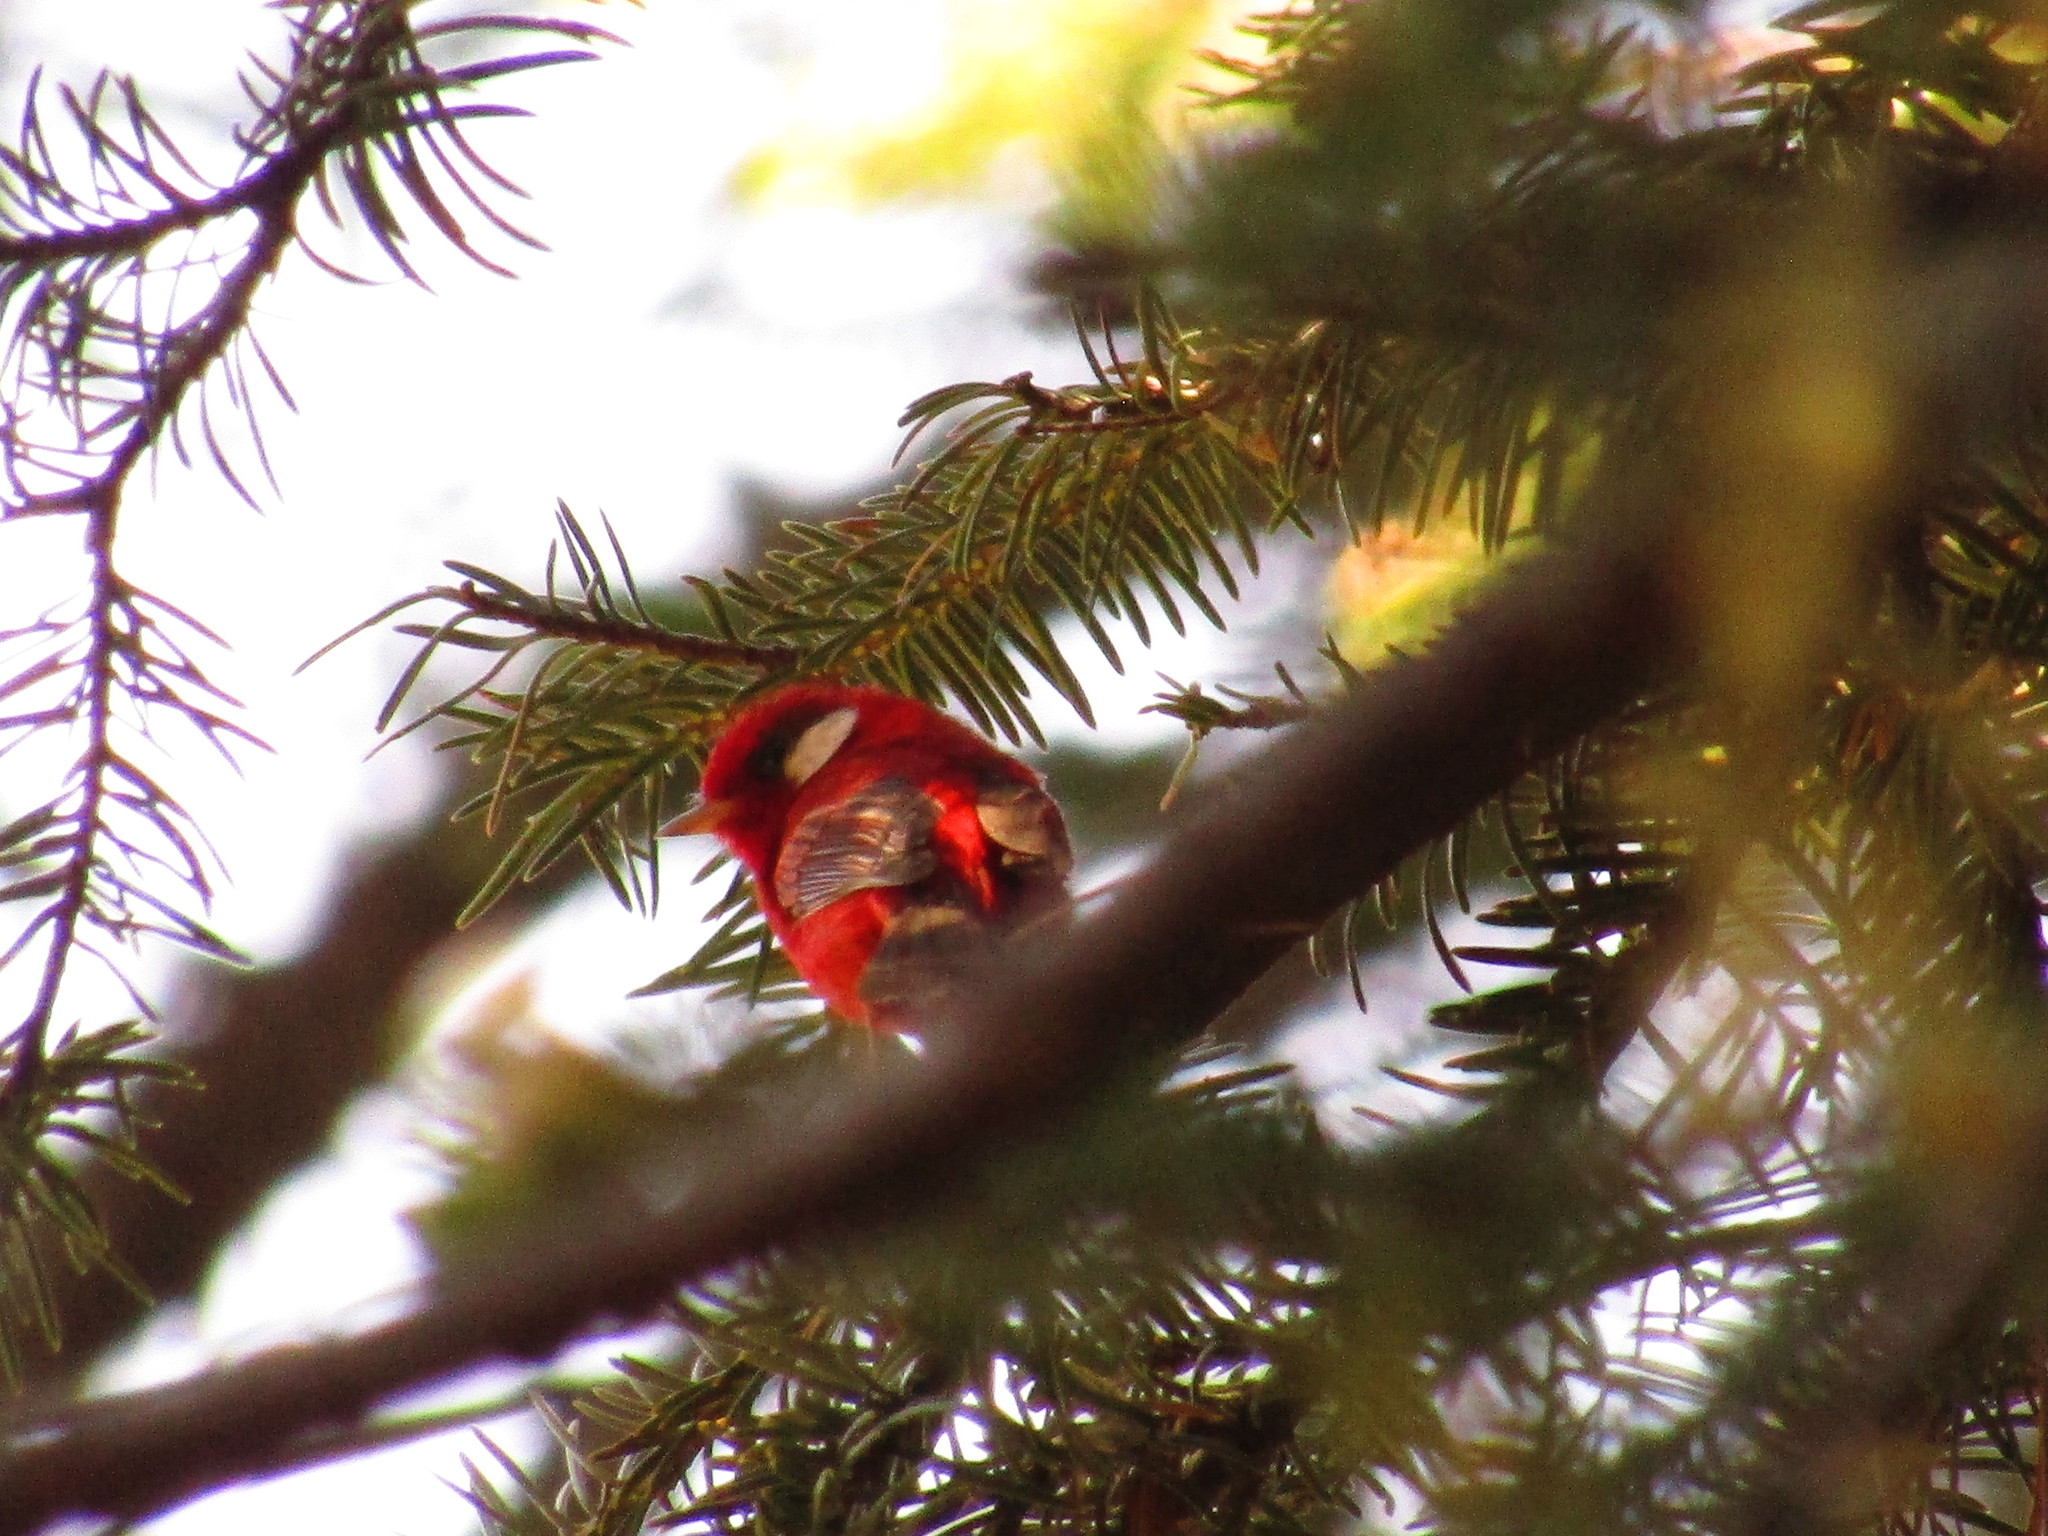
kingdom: Animalia
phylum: Chordata
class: Aves
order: Passeriformes
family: Parulidae
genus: Cardellina
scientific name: Cardellina rubra
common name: Red warbler
